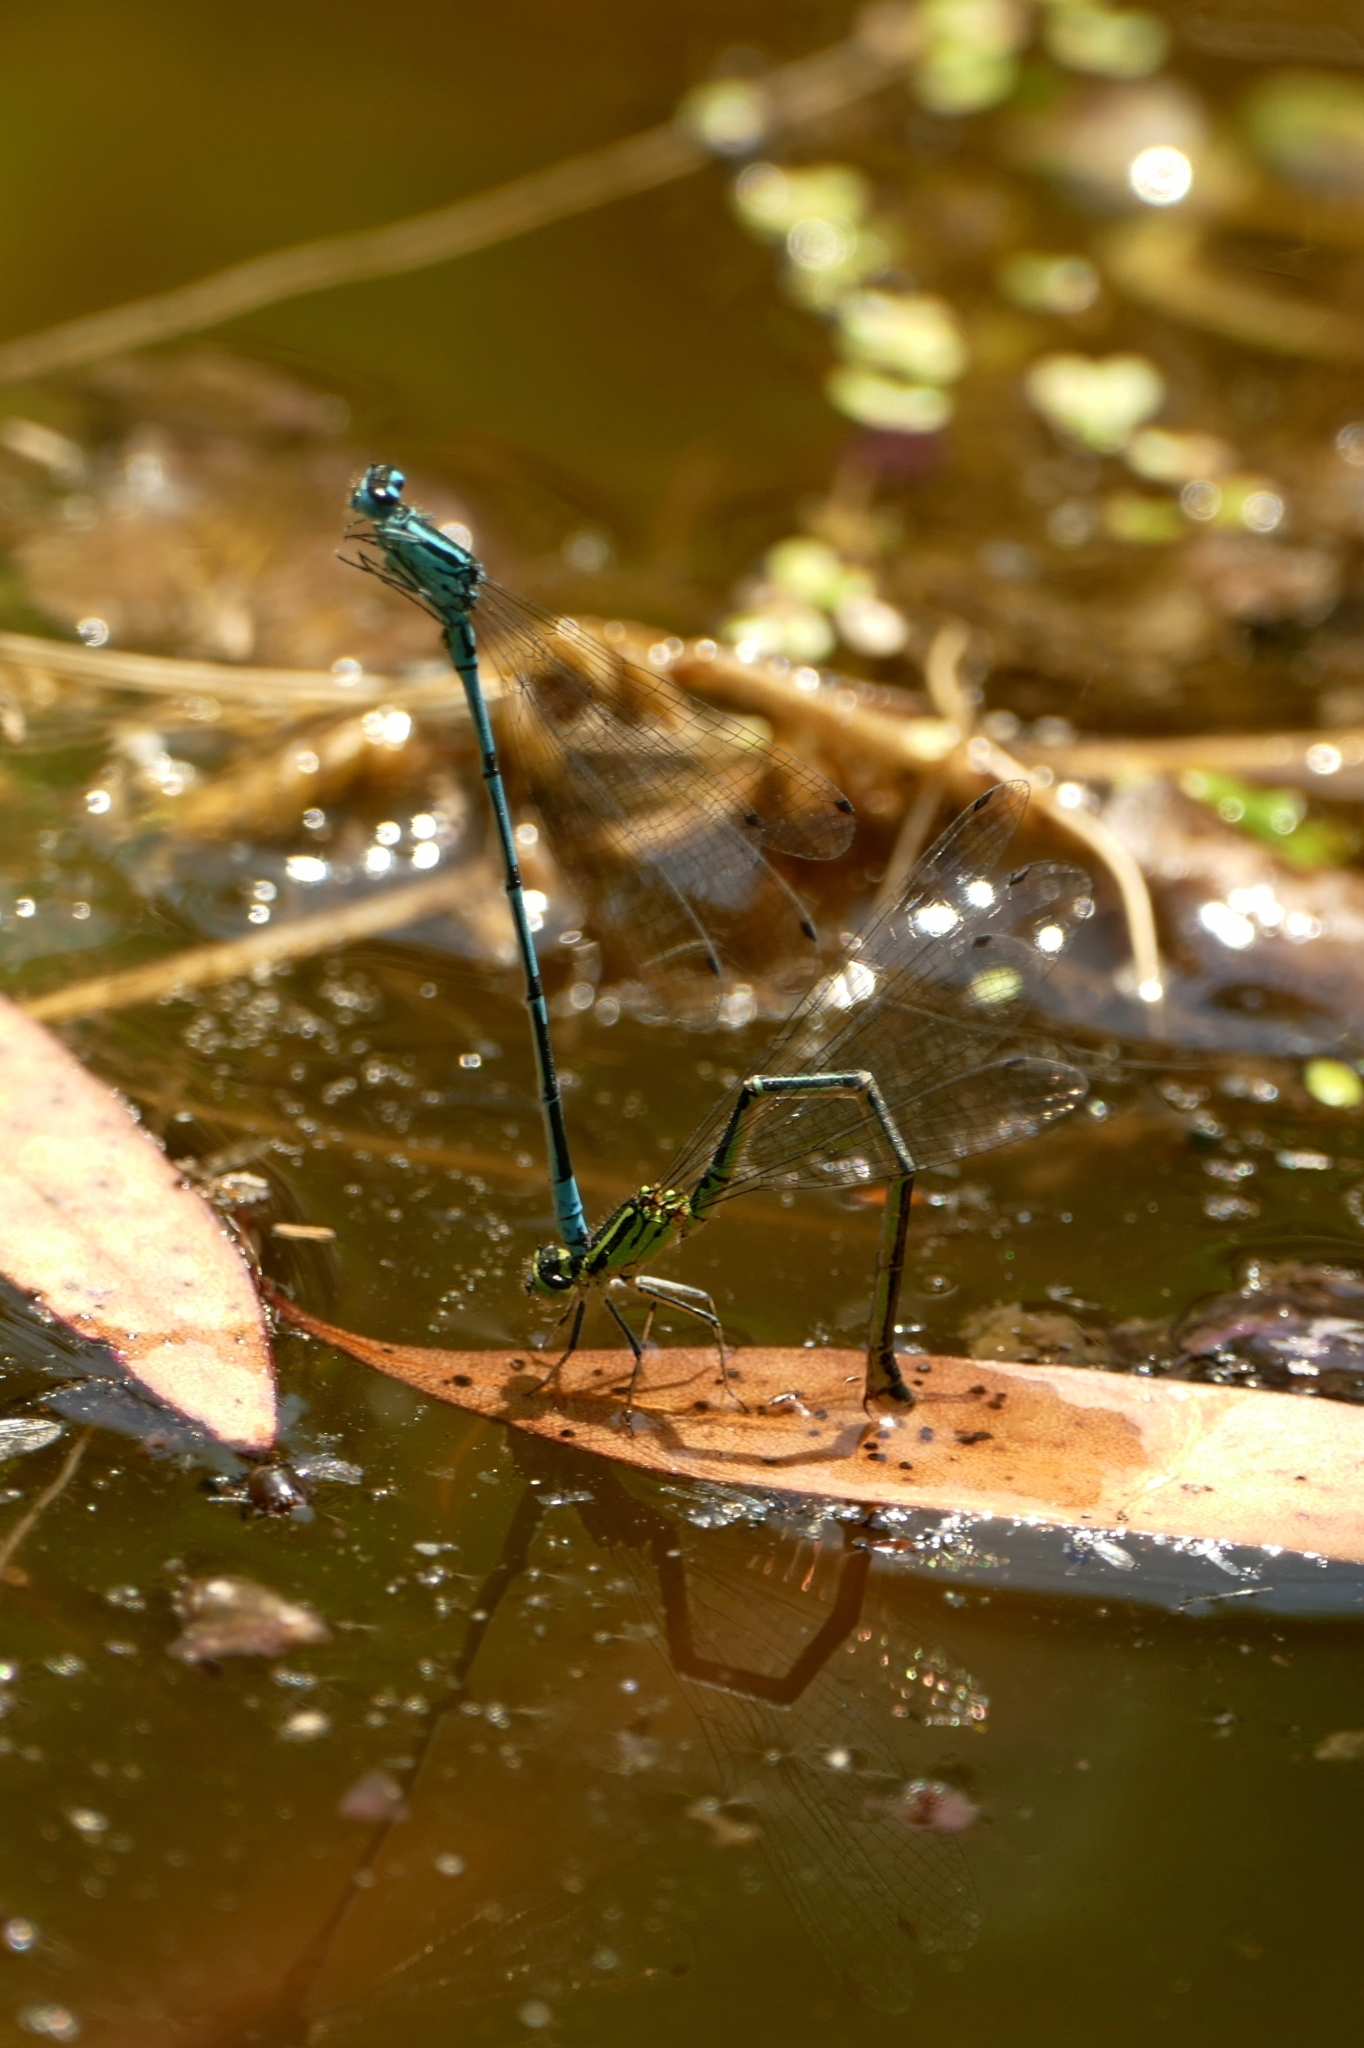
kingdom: Animalia
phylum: Arthropoda
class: Insecta
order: Odonata
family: Coenagrionidae
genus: Coenagrion
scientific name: Coenagrion puella
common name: Azure damselfly
